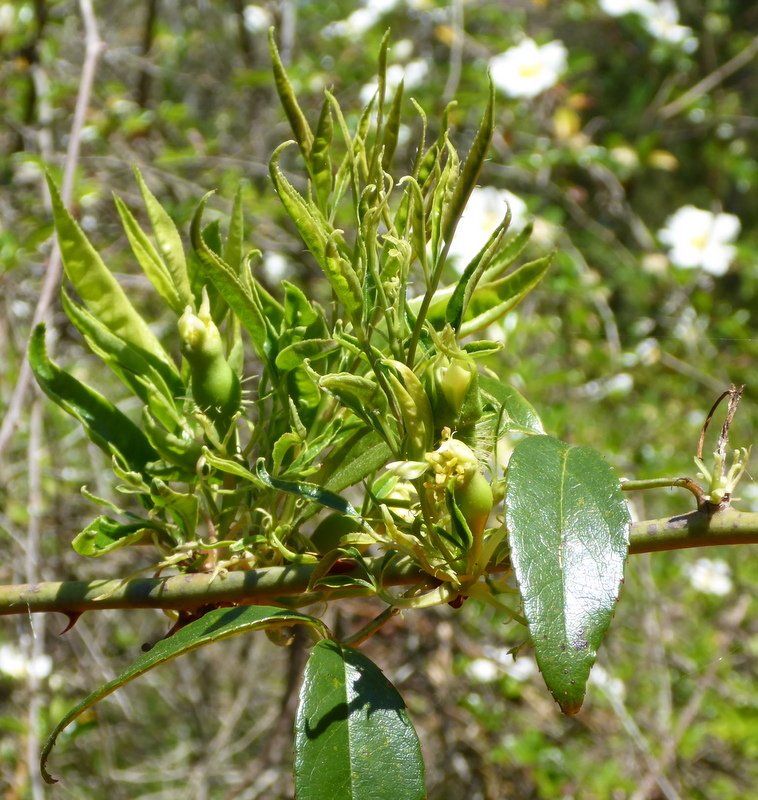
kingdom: Plantae
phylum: Tracheophyta
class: Magnoliopsida
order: Rosales
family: Rosaceae
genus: Rosa
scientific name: Rosa laevigata
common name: Cherokee rose
